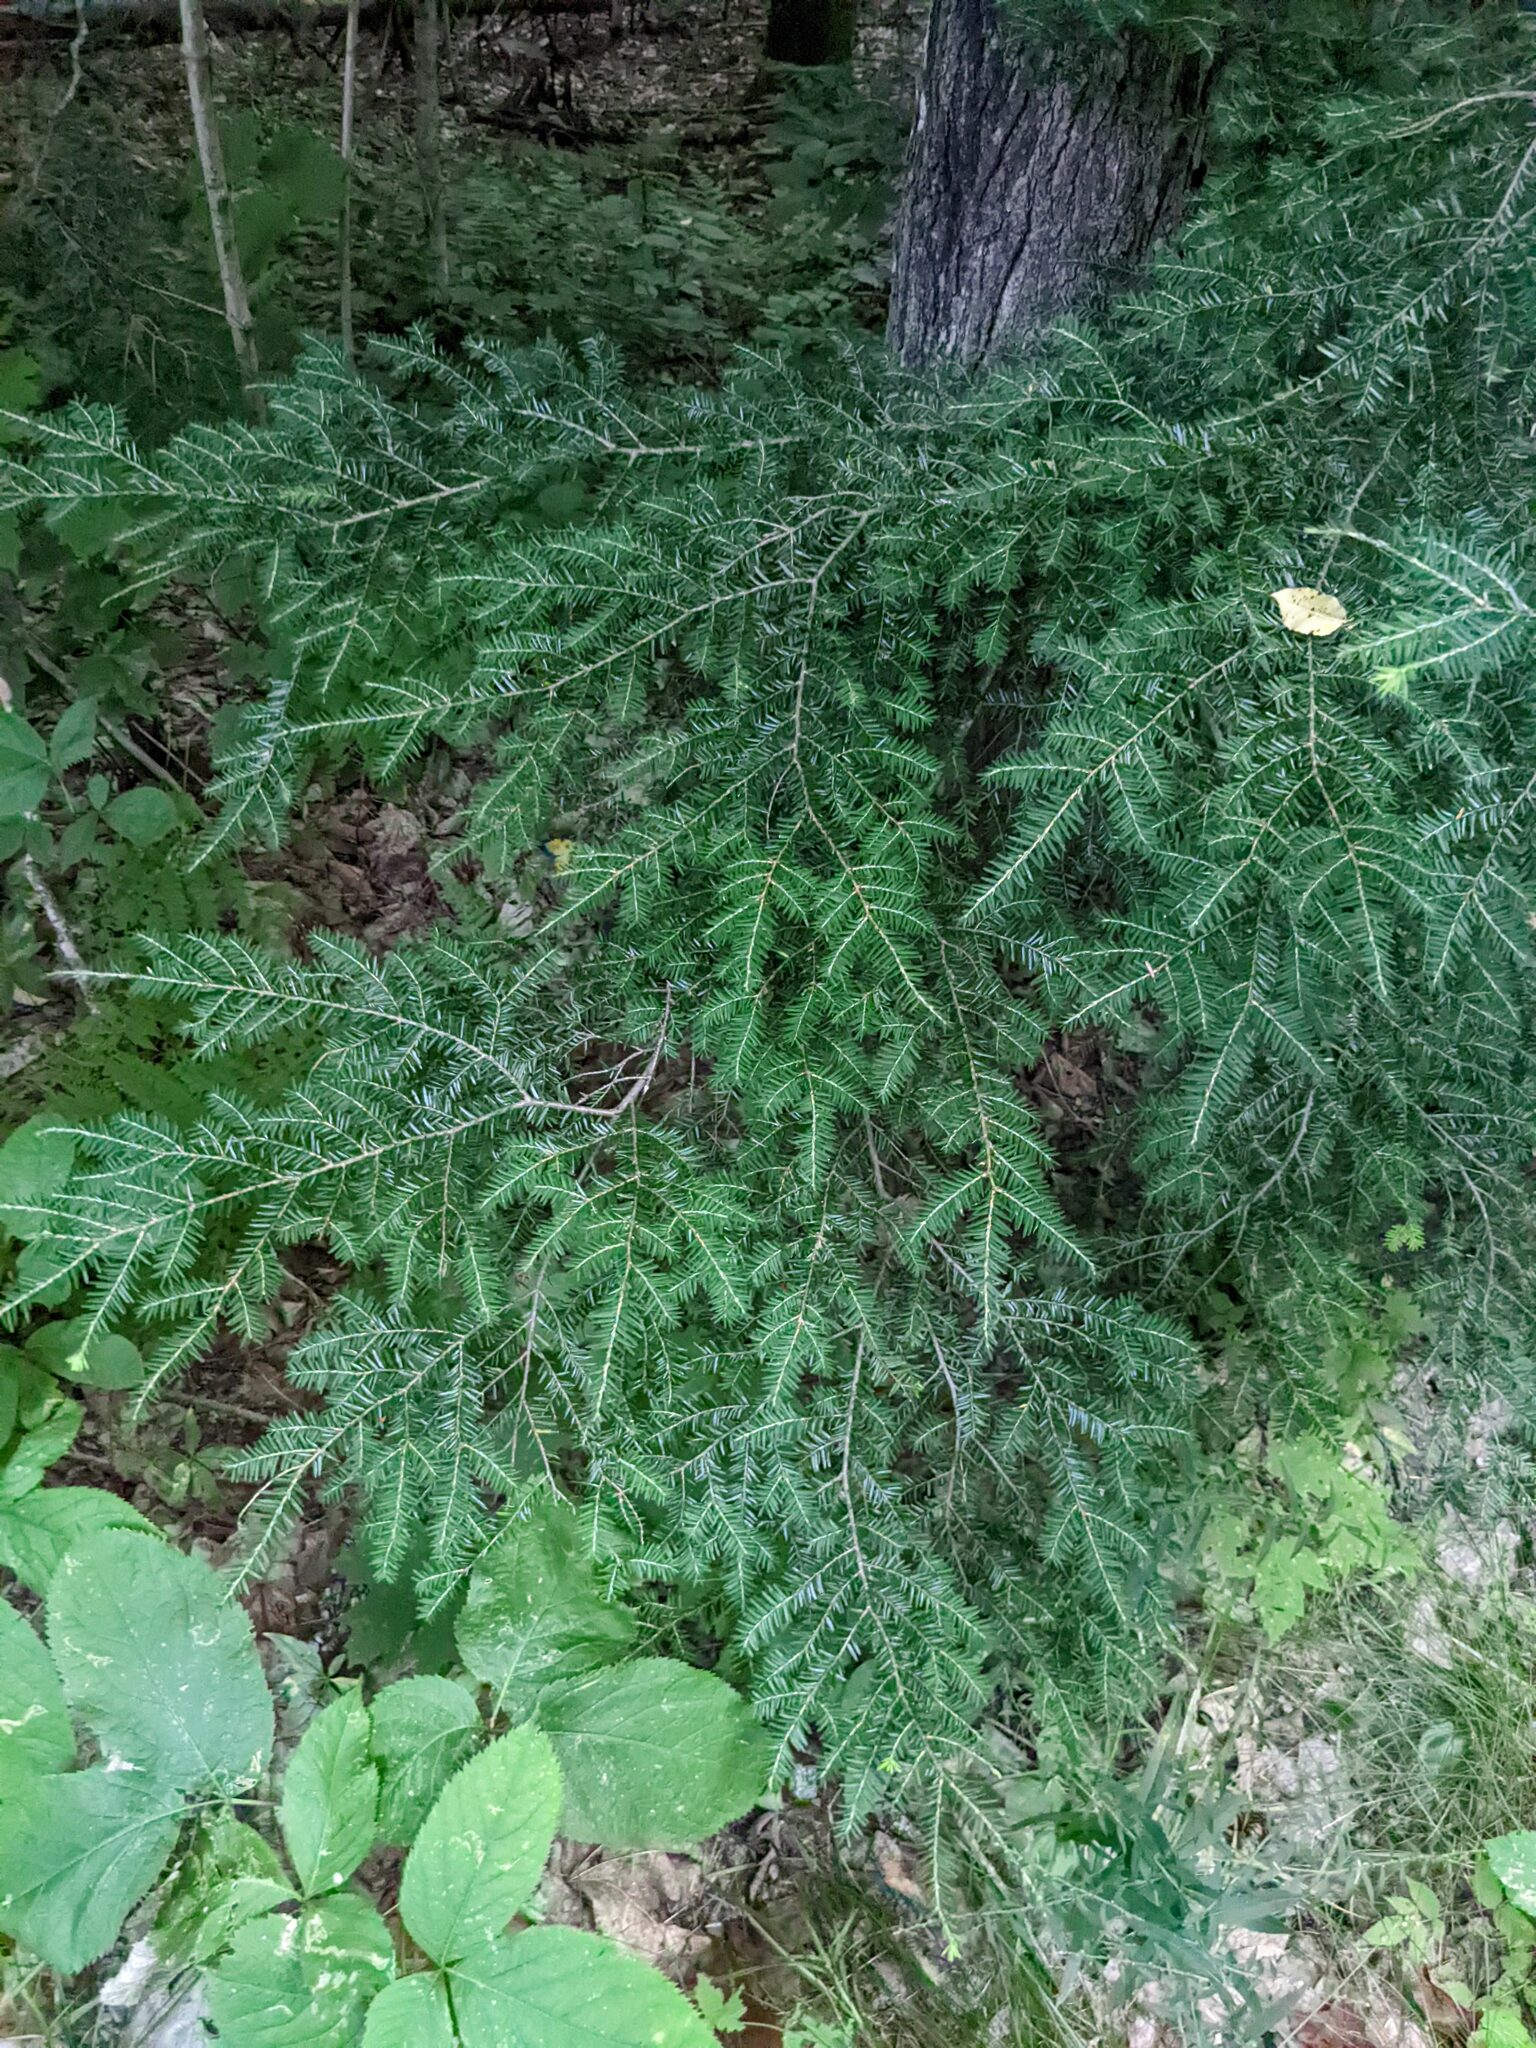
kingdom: Plantae
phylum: Tracheophyta
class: Pinopsida
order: Pinales
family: Pinaceae
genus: Tsuga
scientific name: Tsuga canadensis
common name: Eastern hemlock
